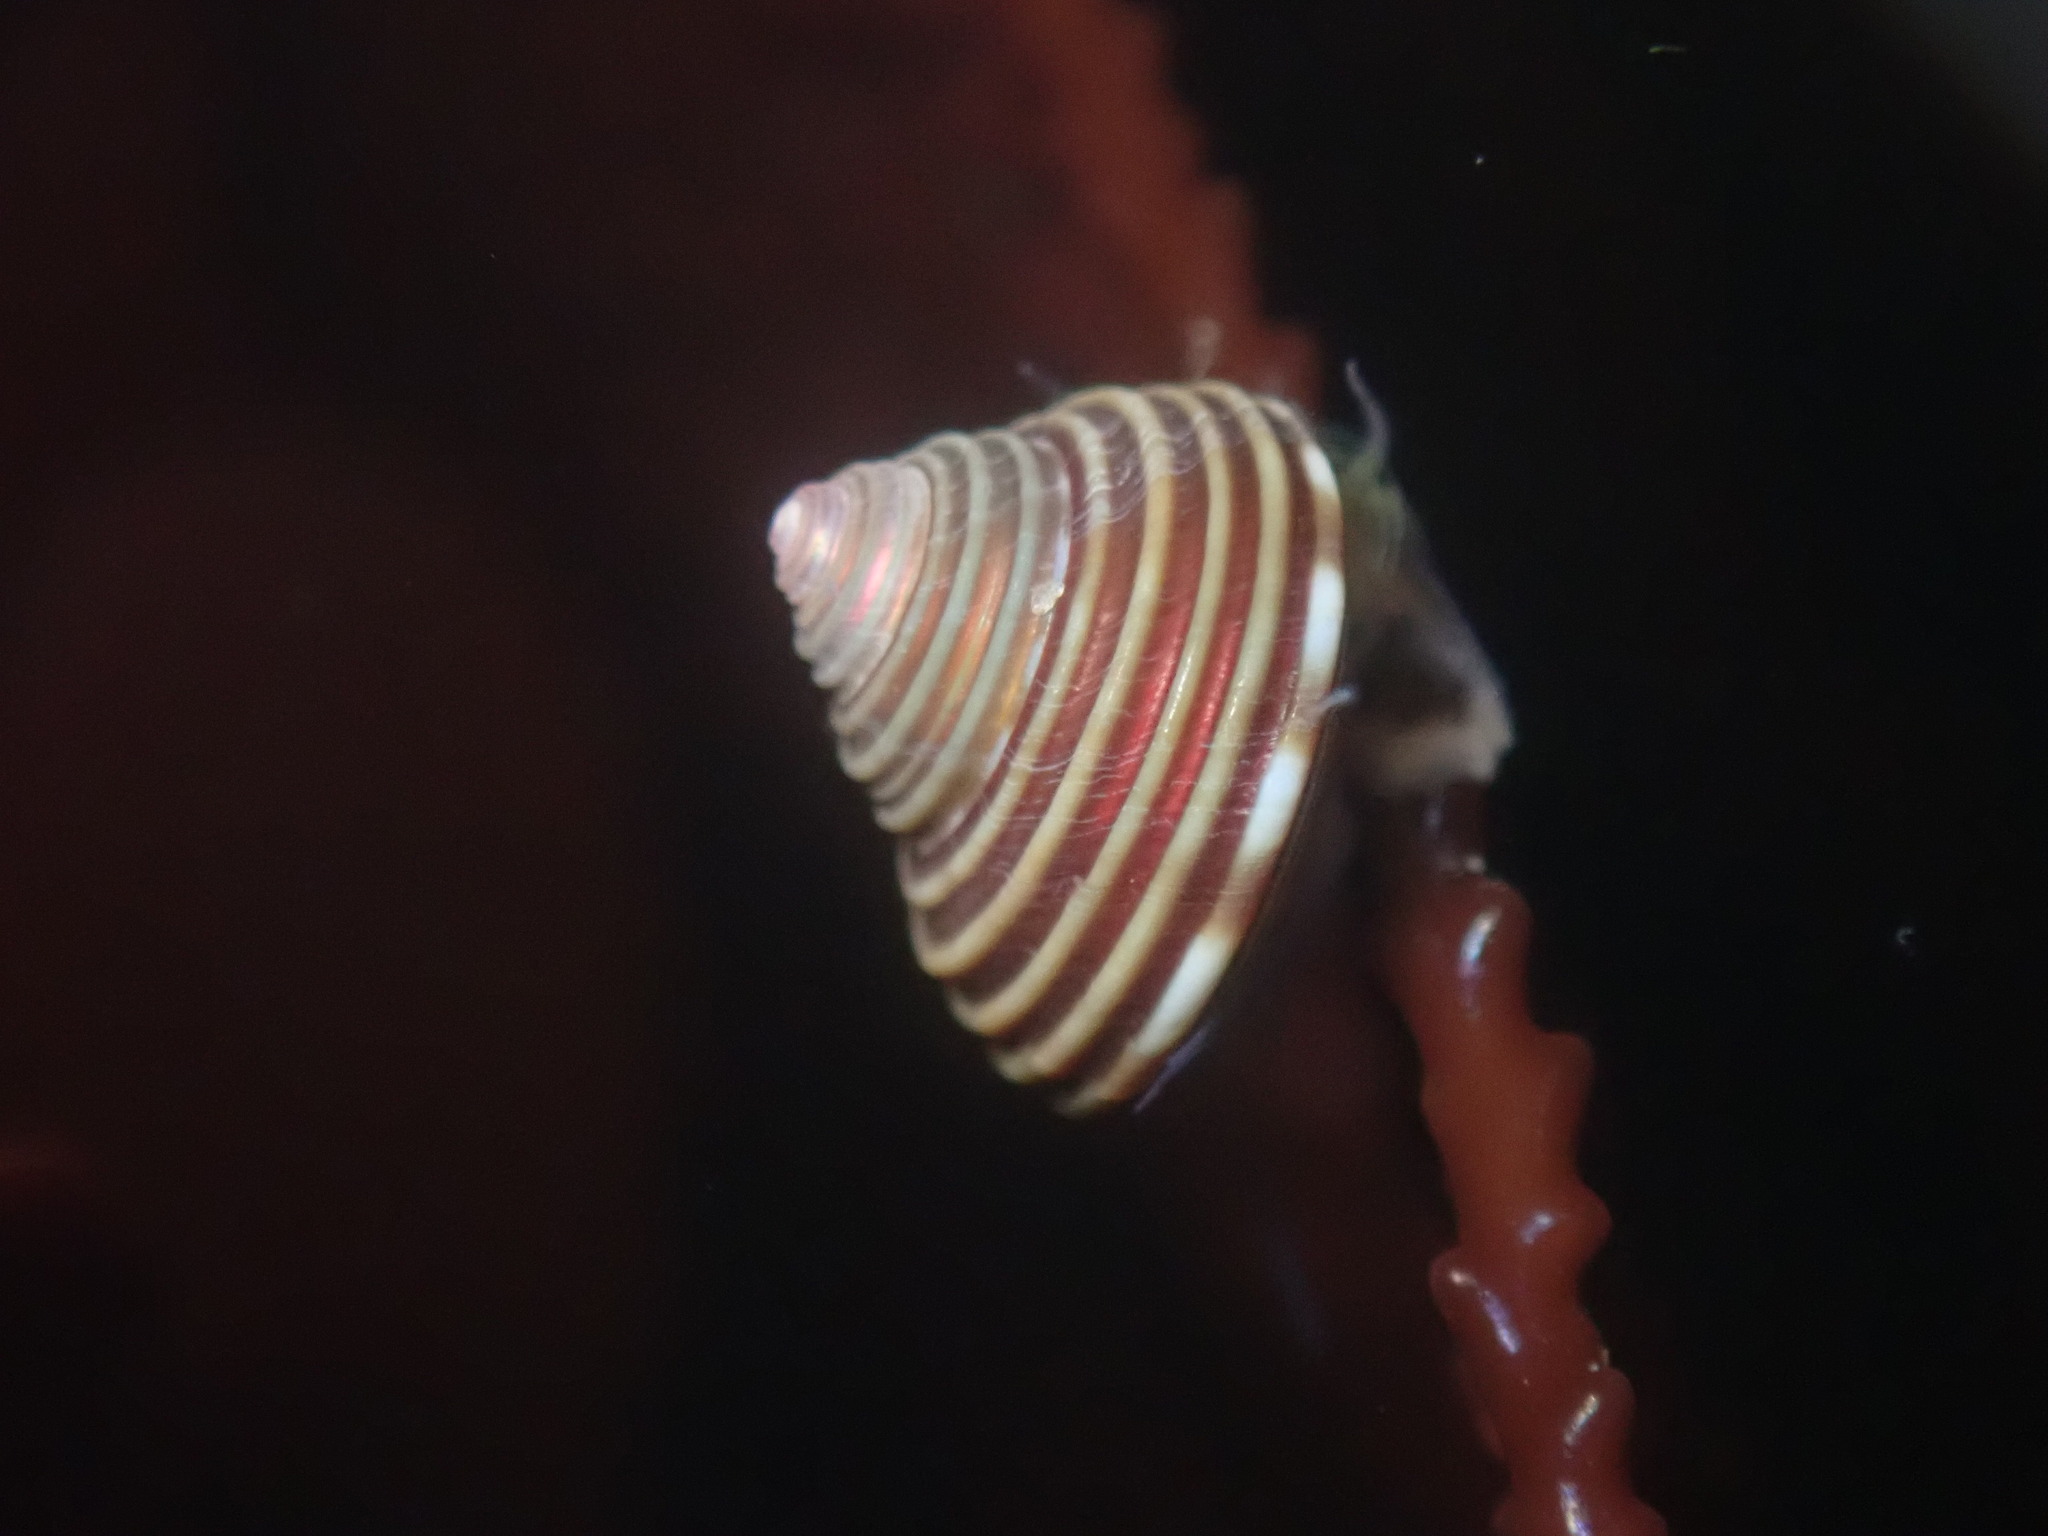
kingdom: Animalia
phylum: Mollusca
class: Gastropoda
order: Trochida
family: Calliostomatidae
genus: Calliostoma
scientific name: Calliostoma canaliculatum
